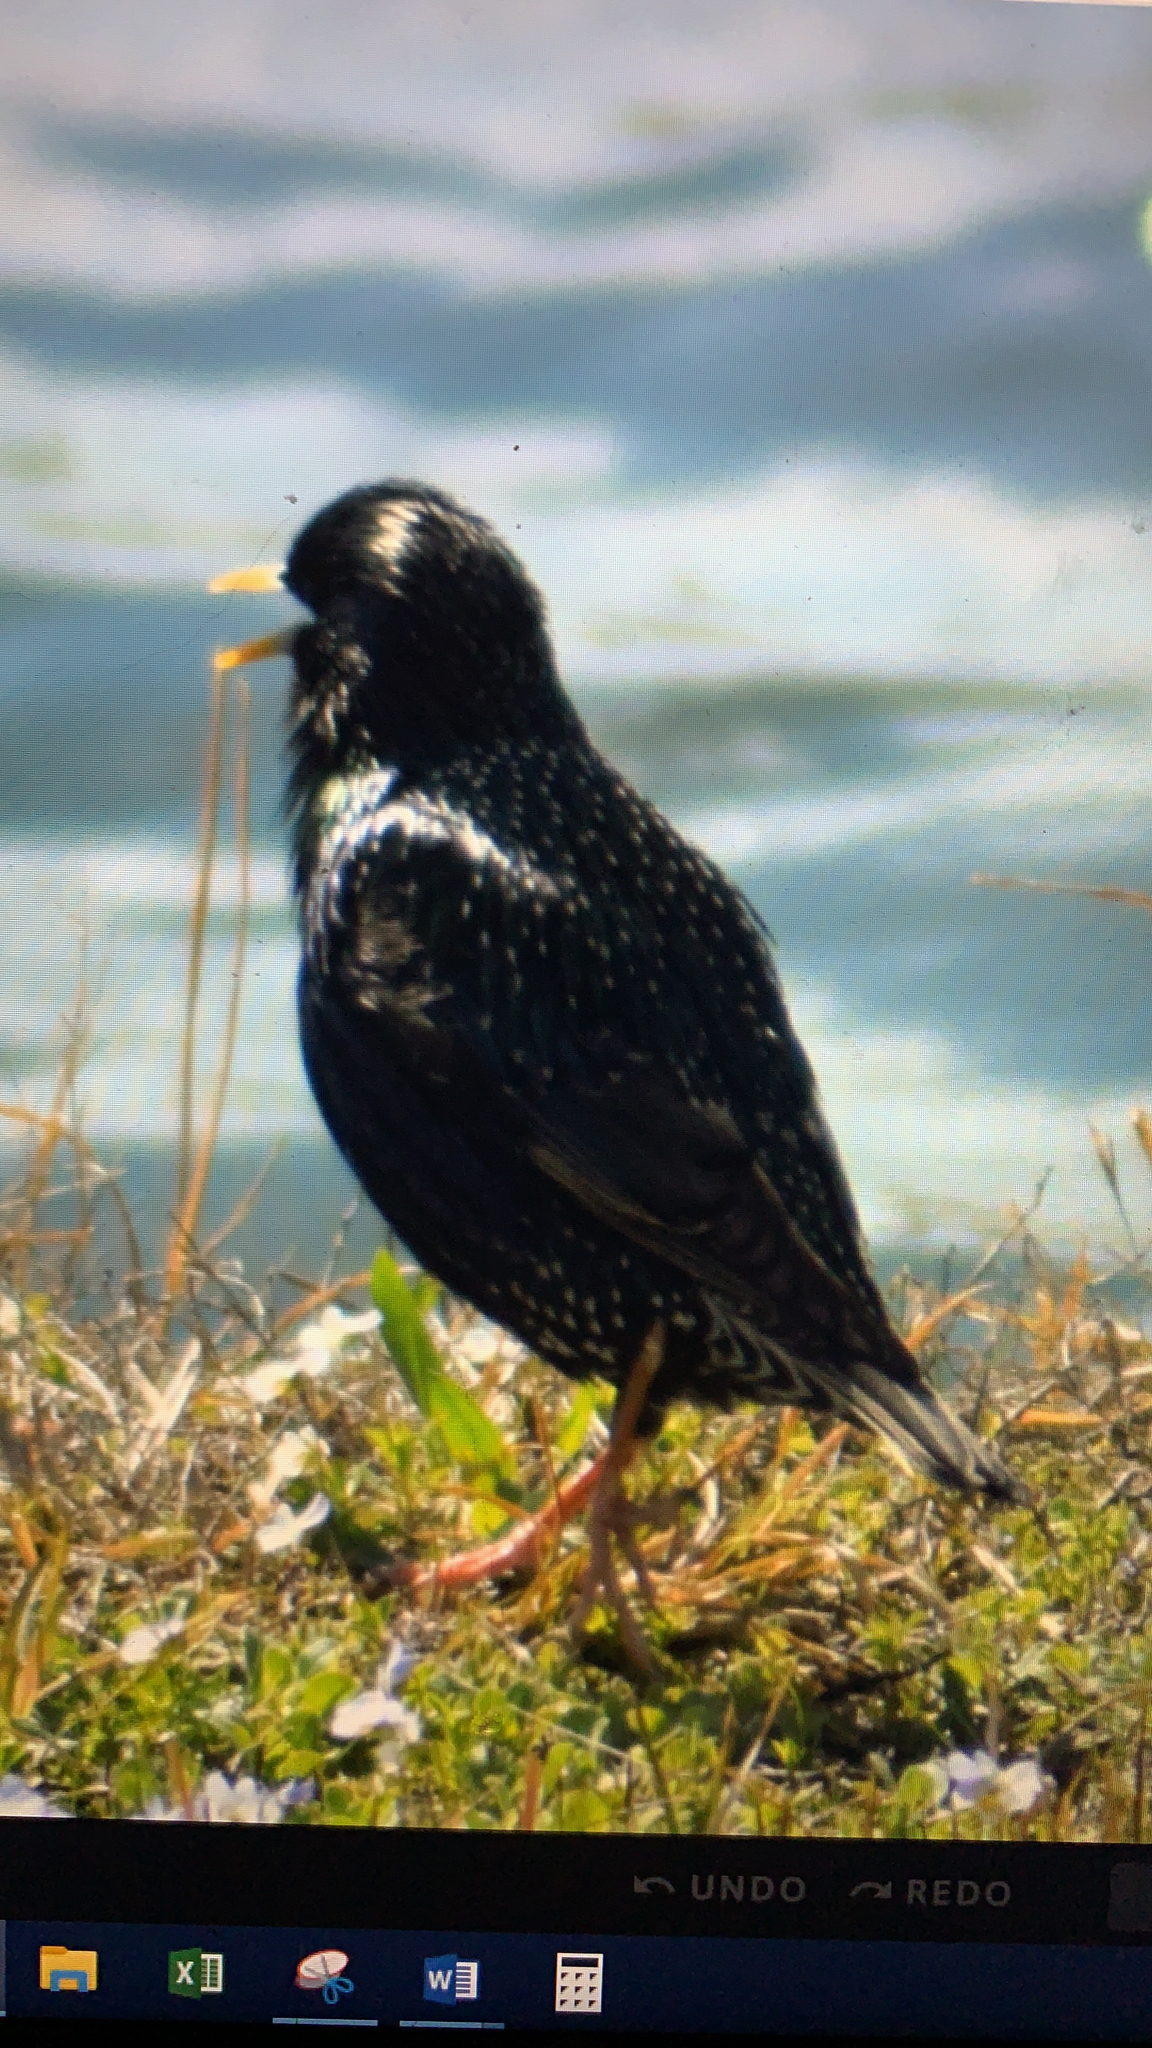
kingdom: Animalia
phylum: Chordata
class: Aves
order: Passeriformes
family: Sturnidae
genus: Sturnus
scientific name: Sturnus vulgaris
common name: Common starling
